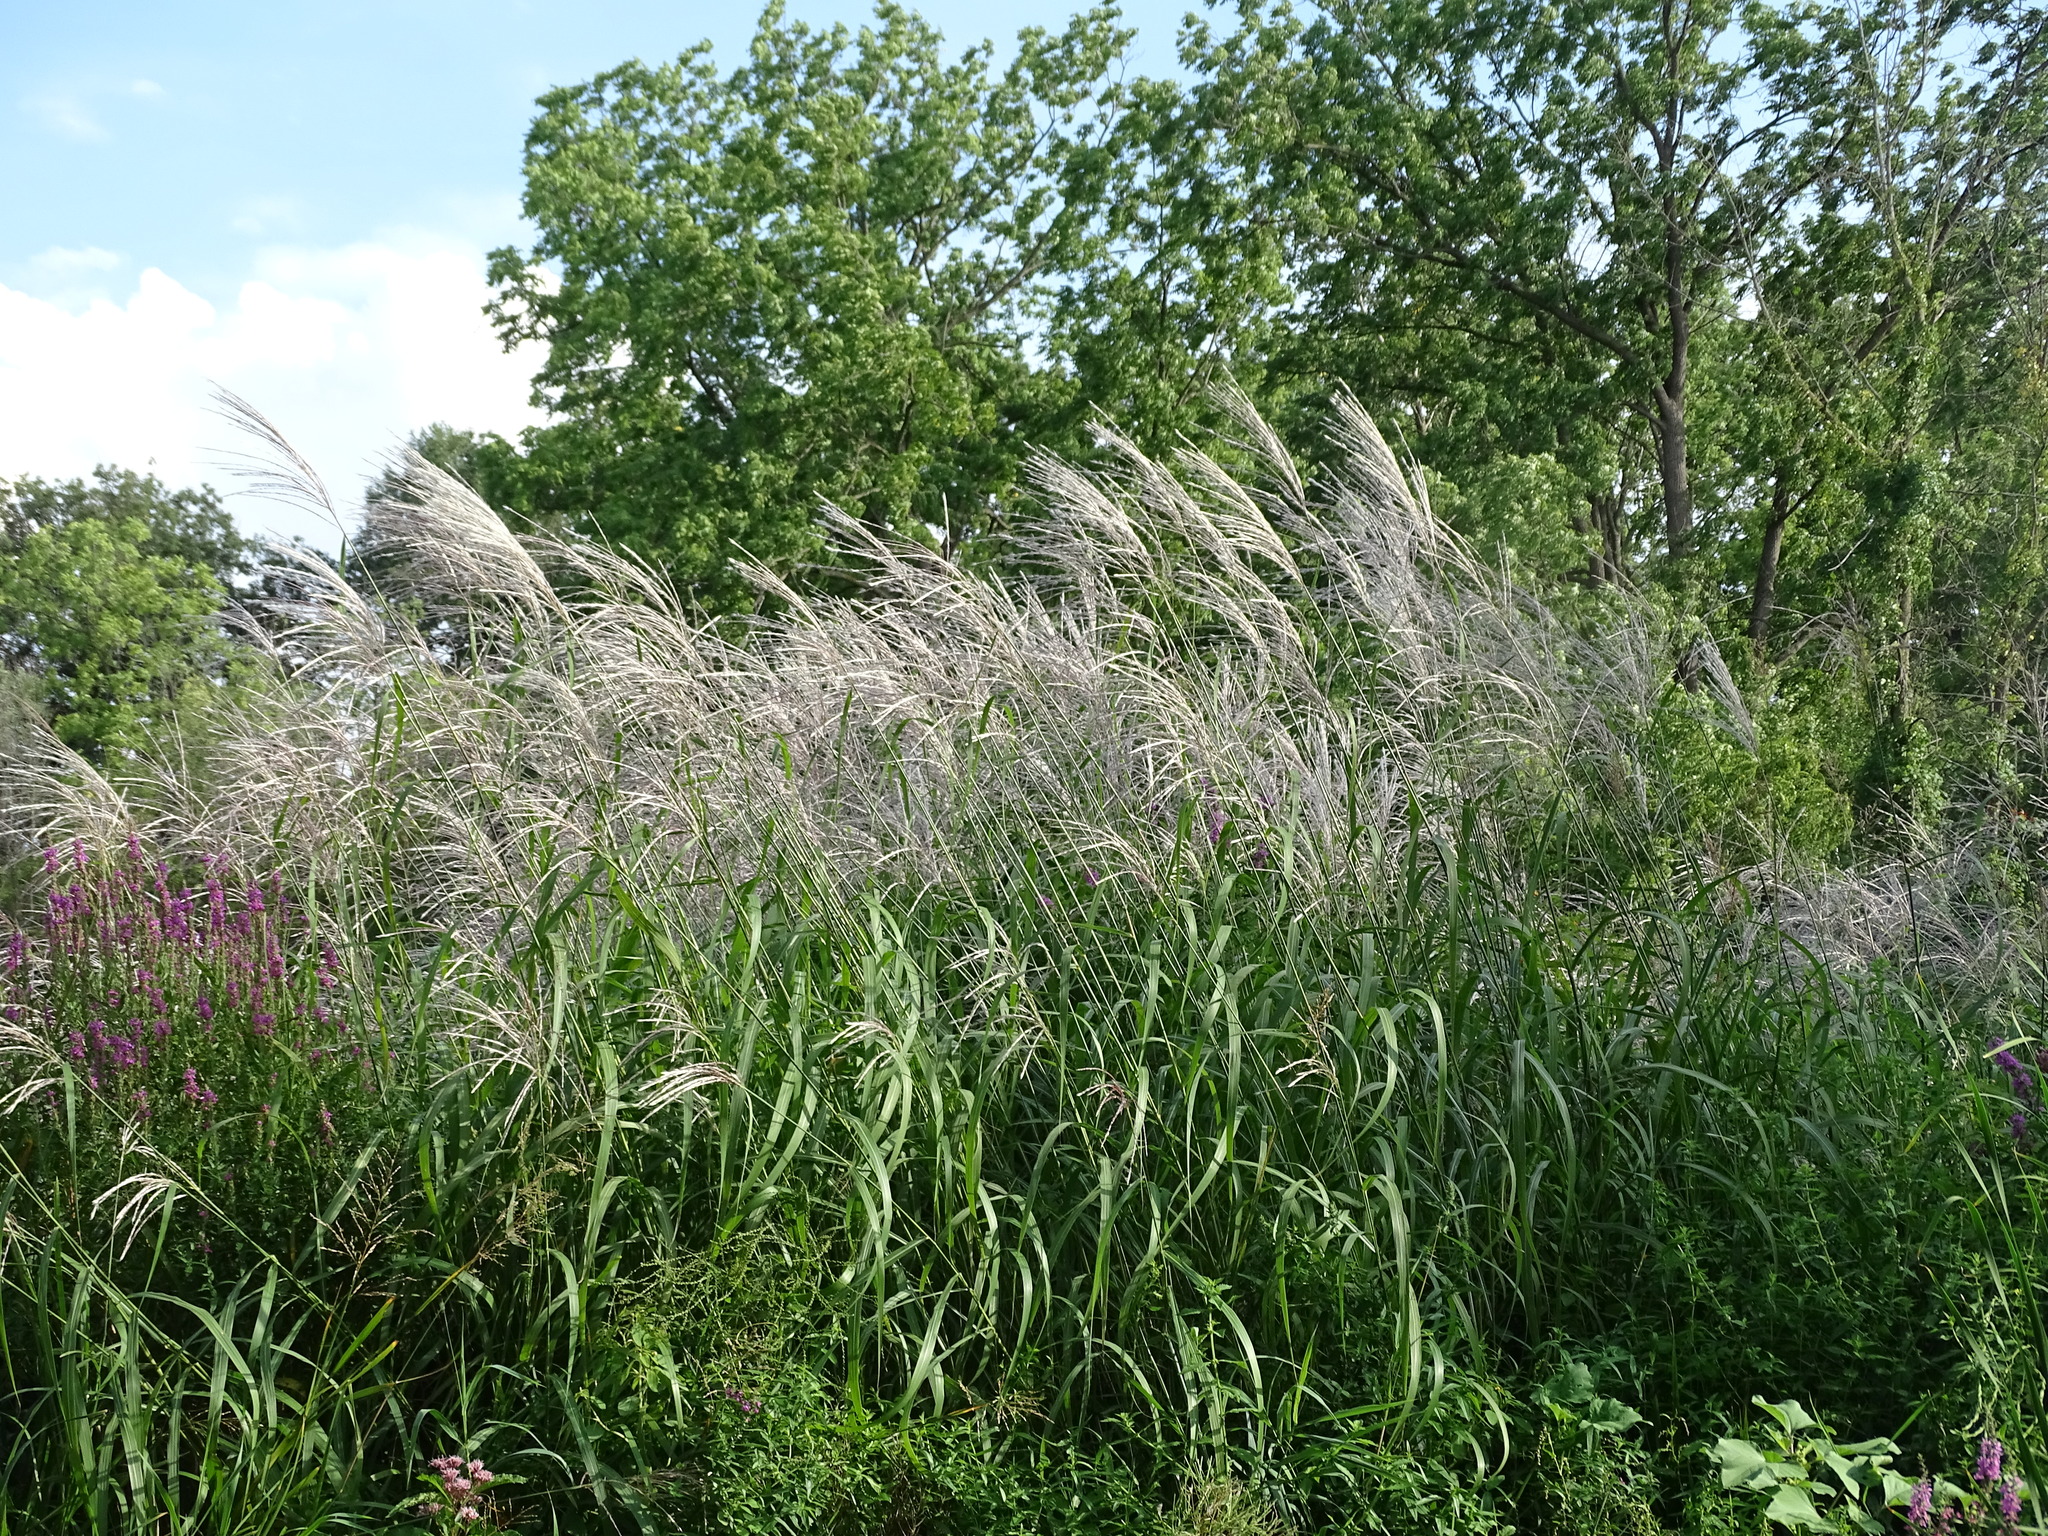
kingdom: Plantae
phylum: Tracheophyta
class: Liliopsida
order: Poales
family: Poaceae
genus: Miscanthus
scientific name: Miscanthus sinensis
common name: Chinese silvergrass
